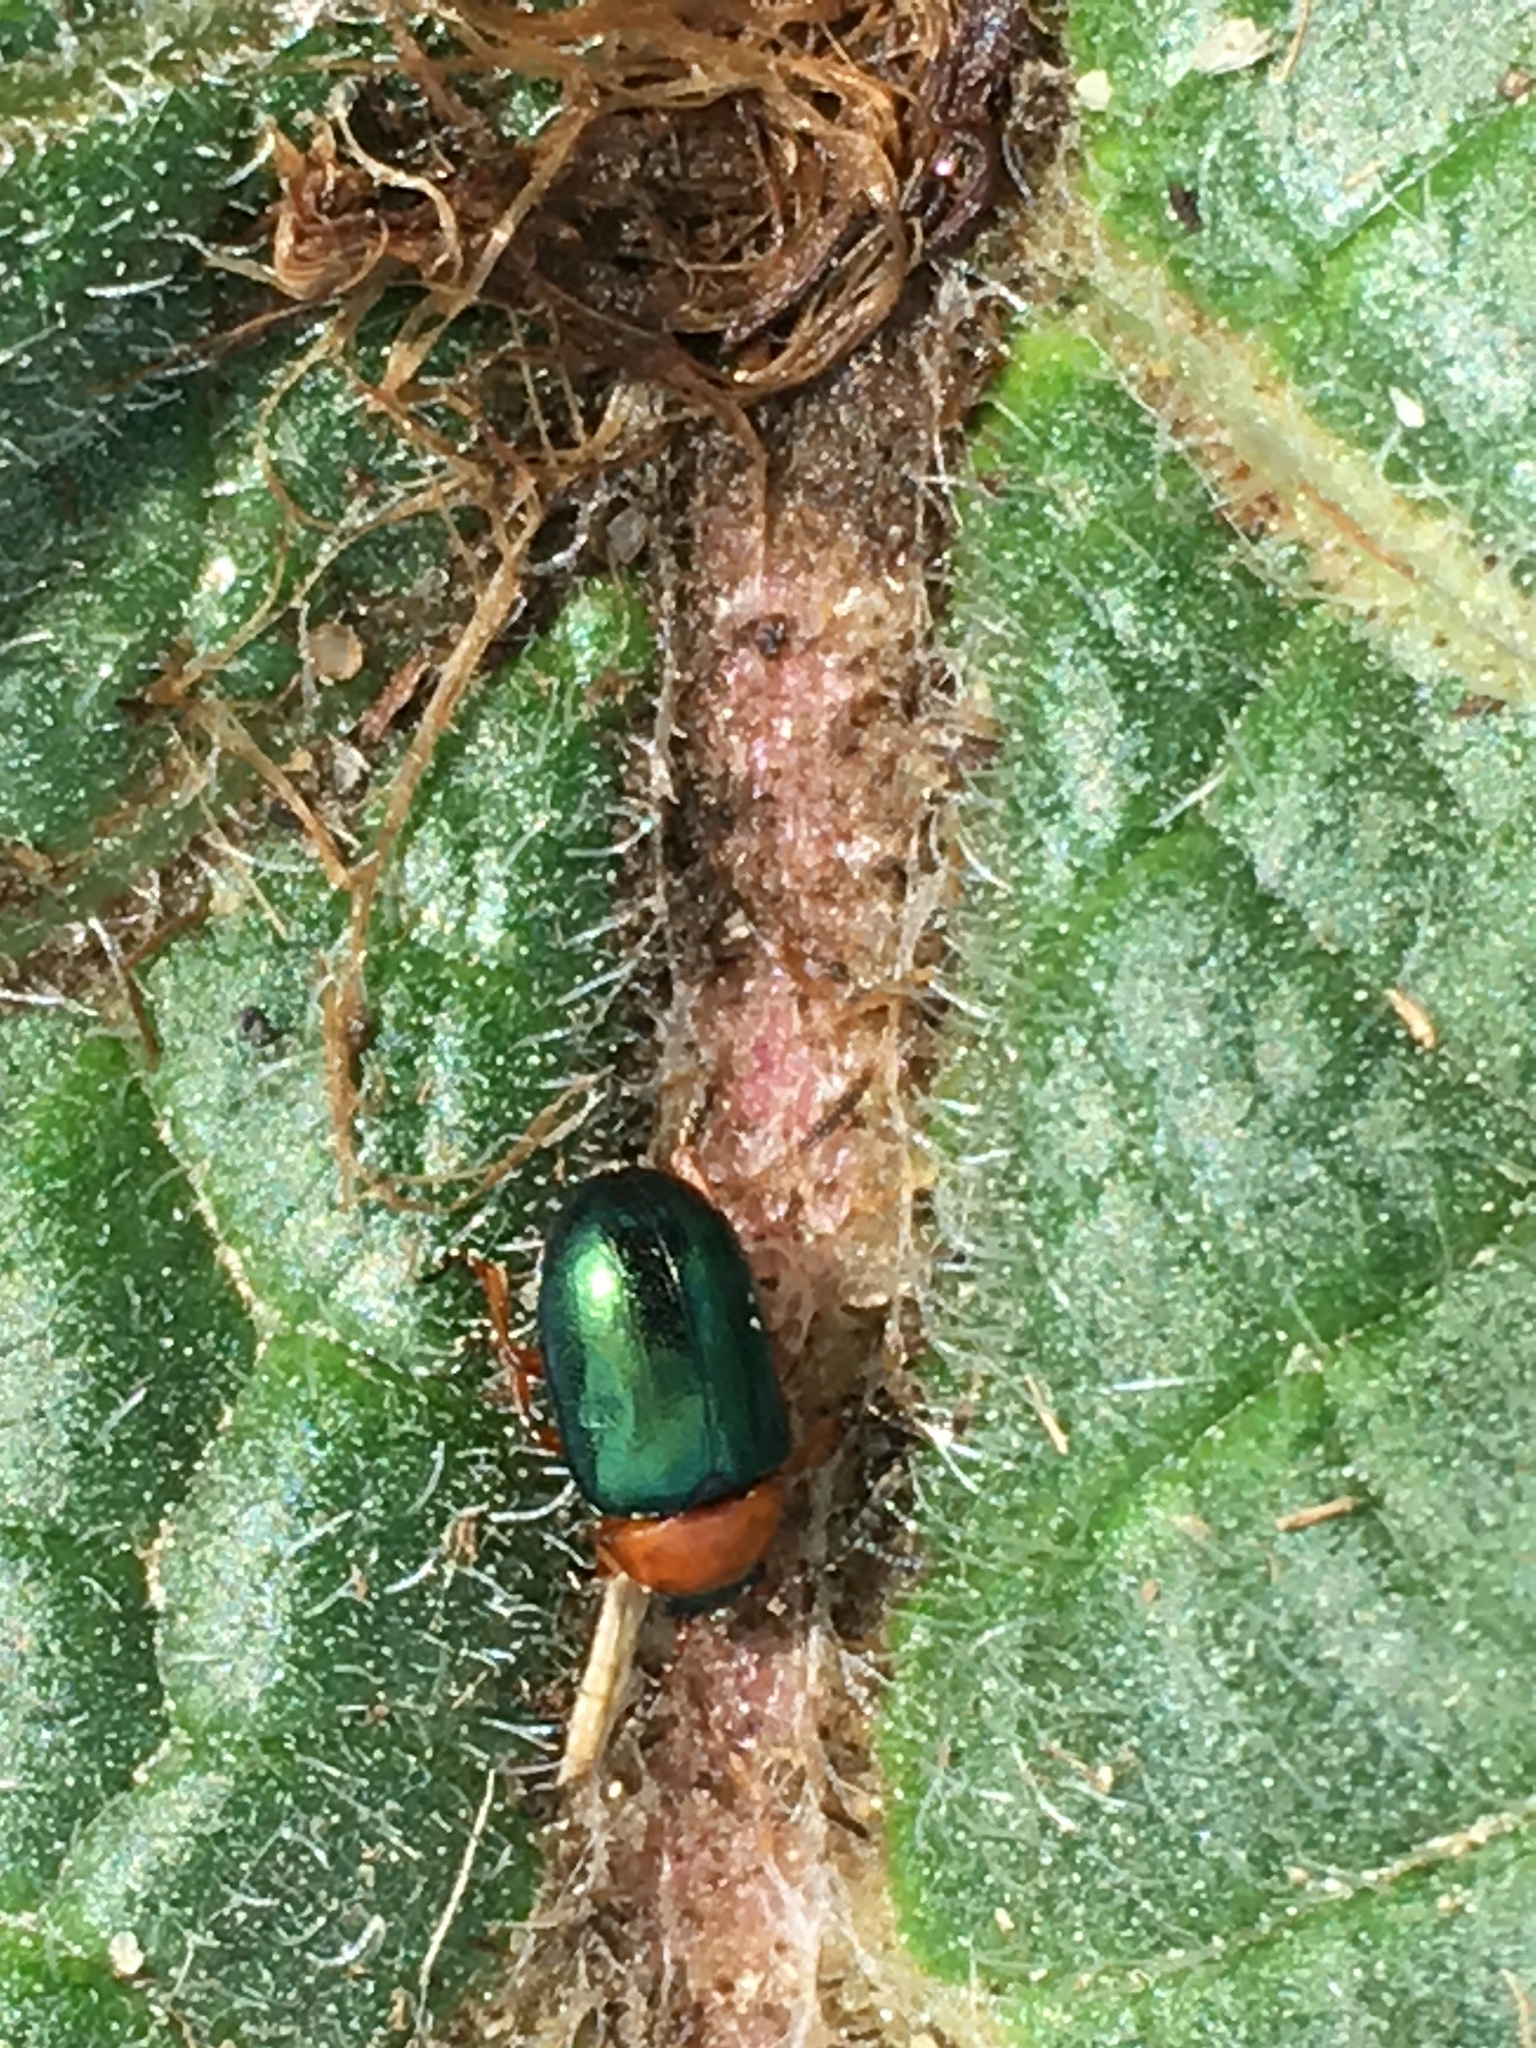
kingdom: Animalia
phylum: Arthropoda
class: Insecta
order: Coleoptera
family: Chrysomelidae
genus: Gastrophysa
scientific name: Gastrophysa polygoni
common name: Knotweed leaf beetle
